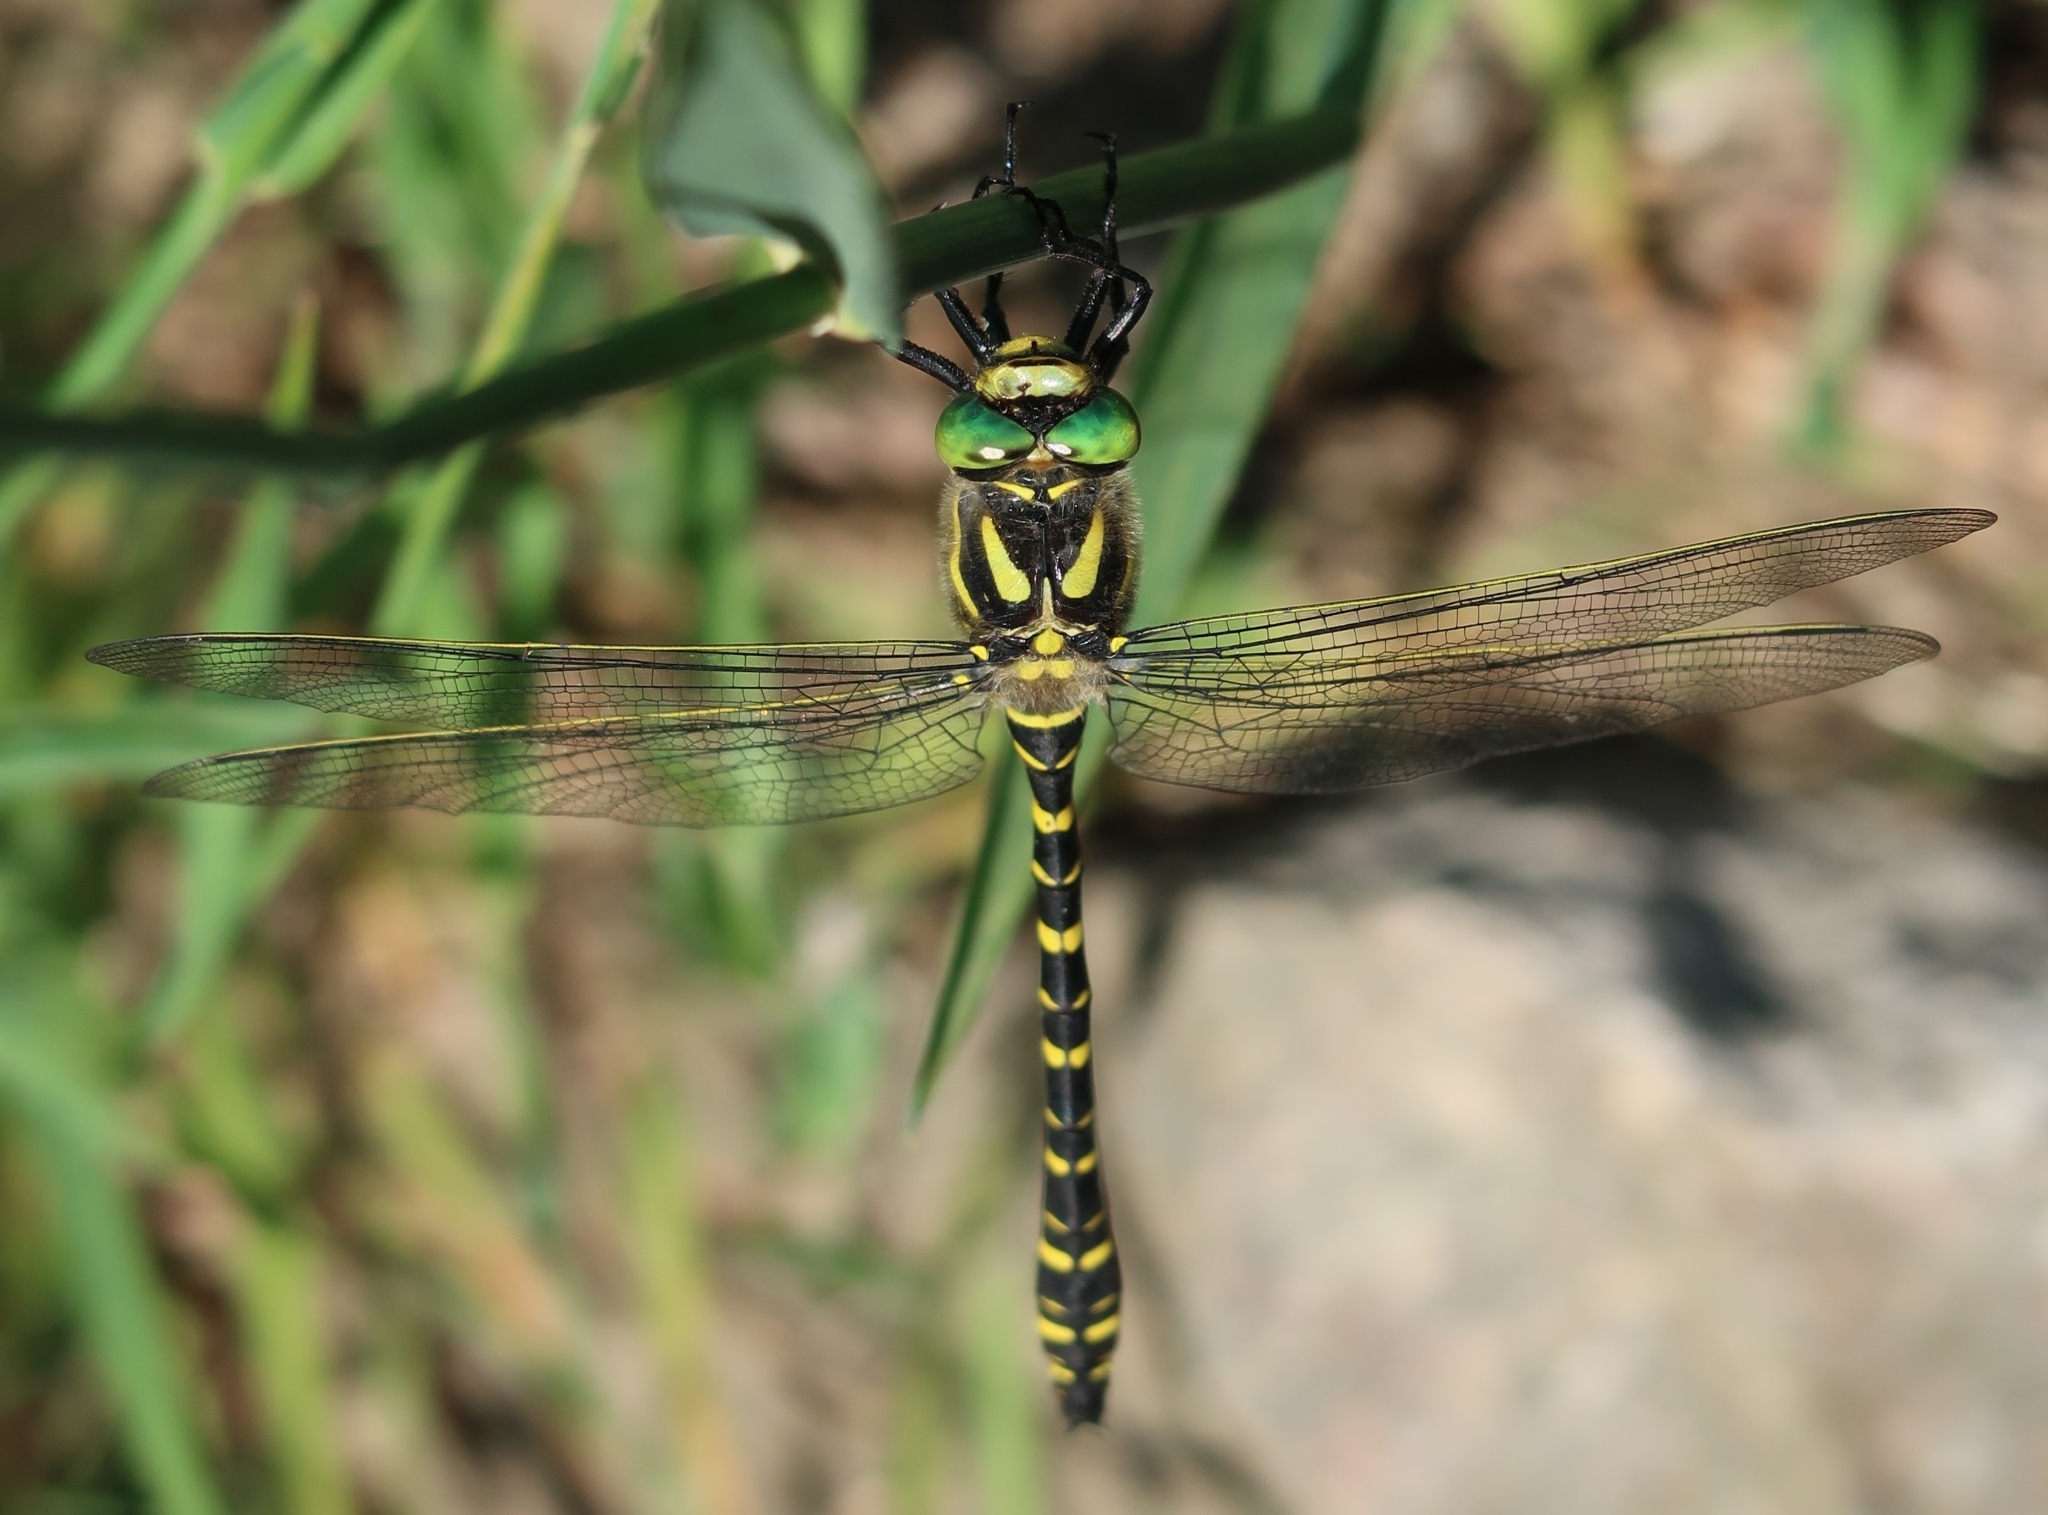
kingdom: Animalia
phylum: Arthropoda
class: Insecta
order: Odonata
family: Cordulegastridae
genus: Cordulegaster
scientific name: Cordulegaster boltonii
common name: Golden-ringed dragonfly
